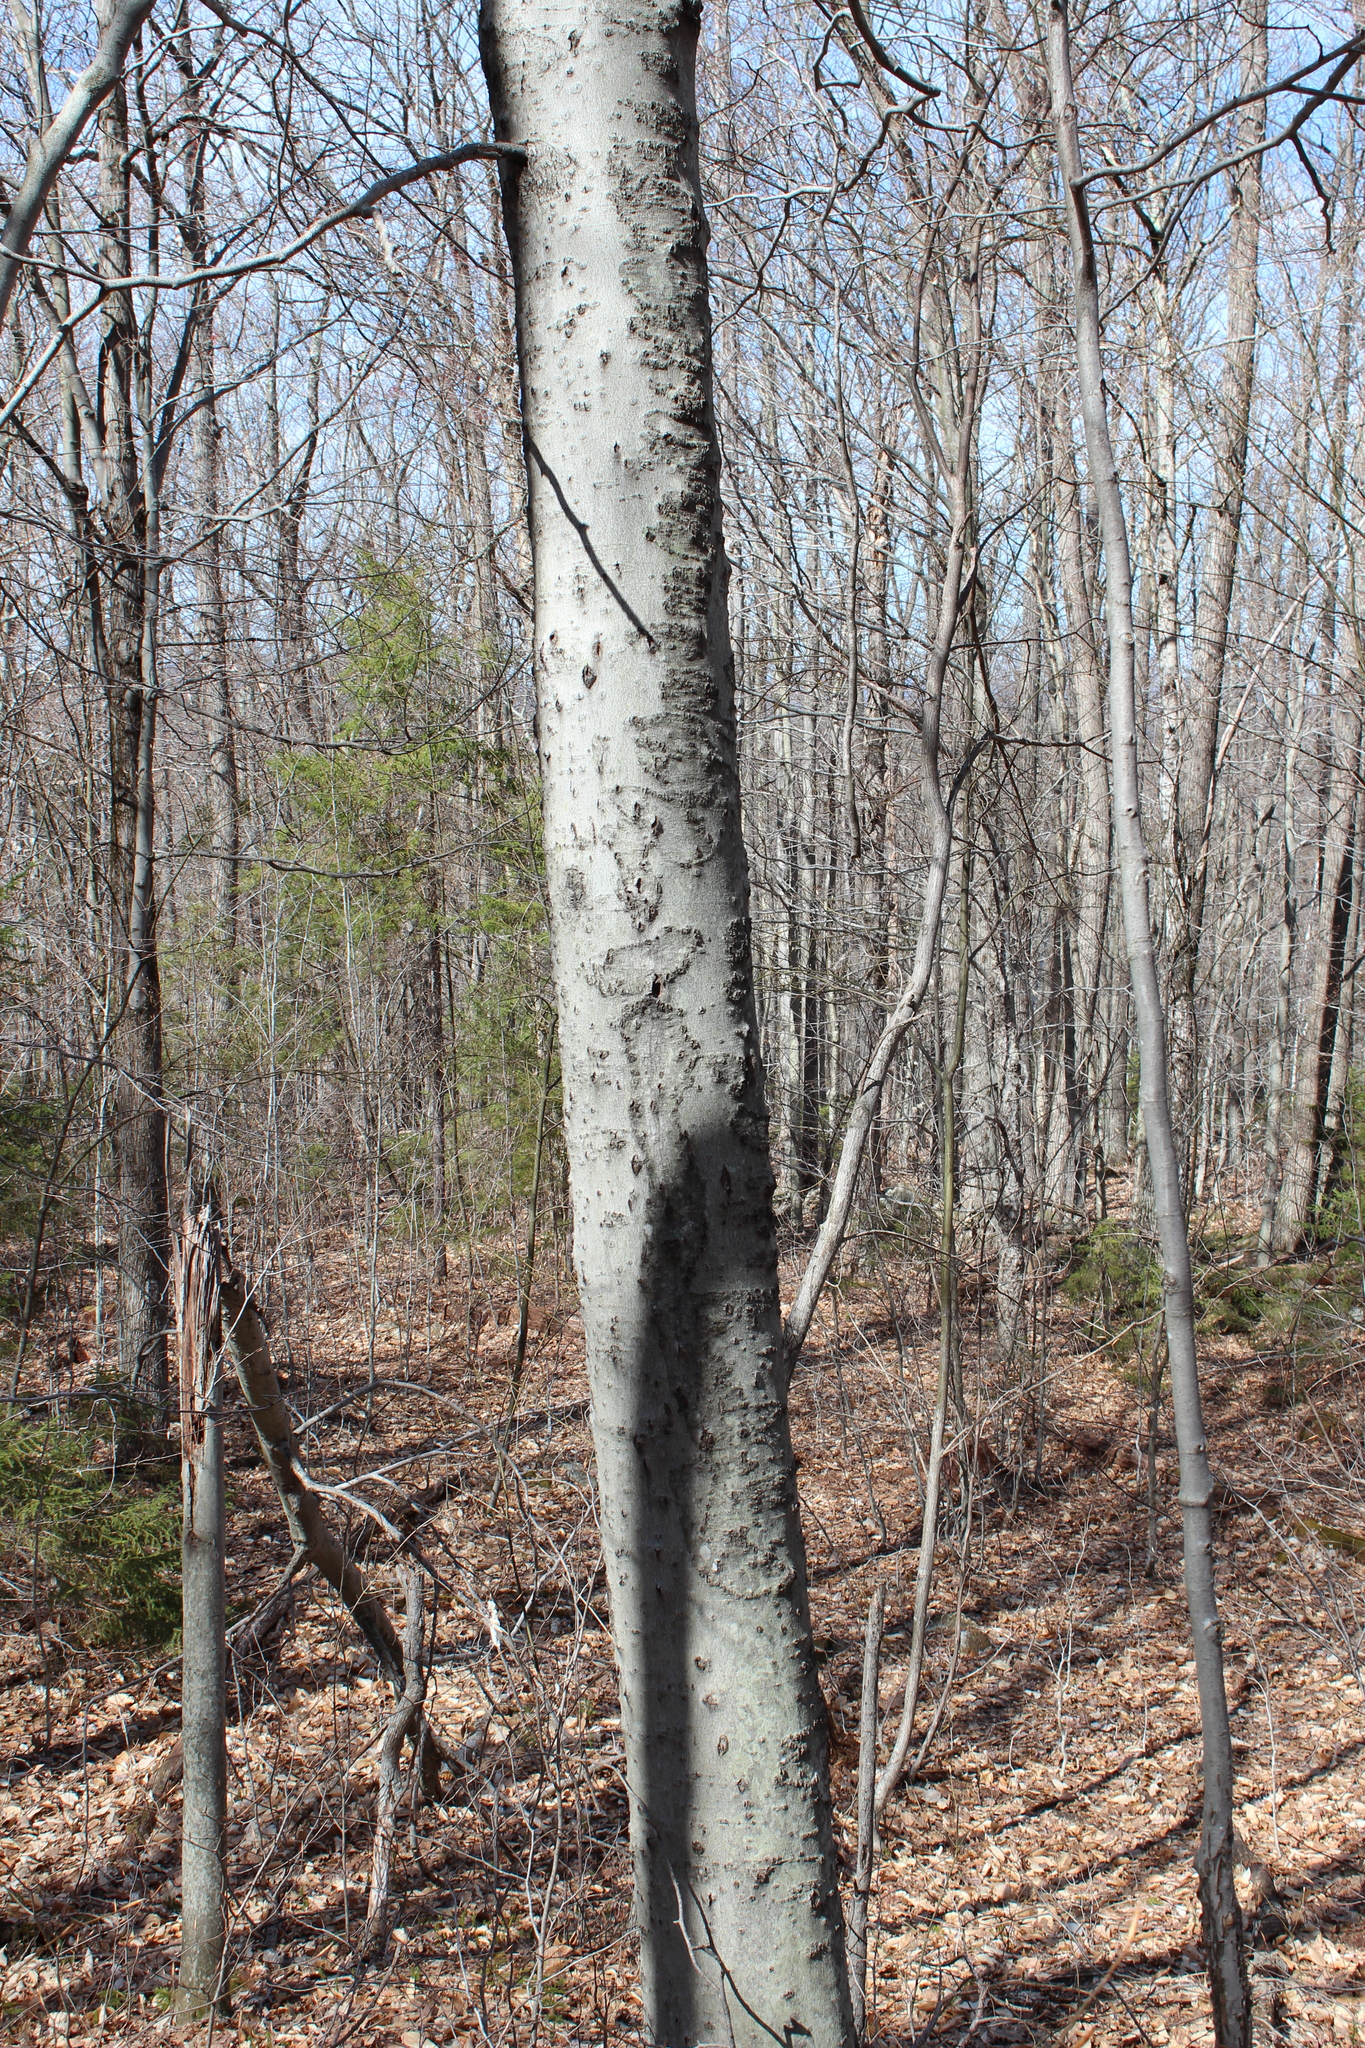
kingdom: Plantae
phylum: Tracheophyta
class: Magnoliopsida
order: Fagales
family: Fagaceae
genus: Fagus
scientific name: Fagus grandifolia
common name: American beech
